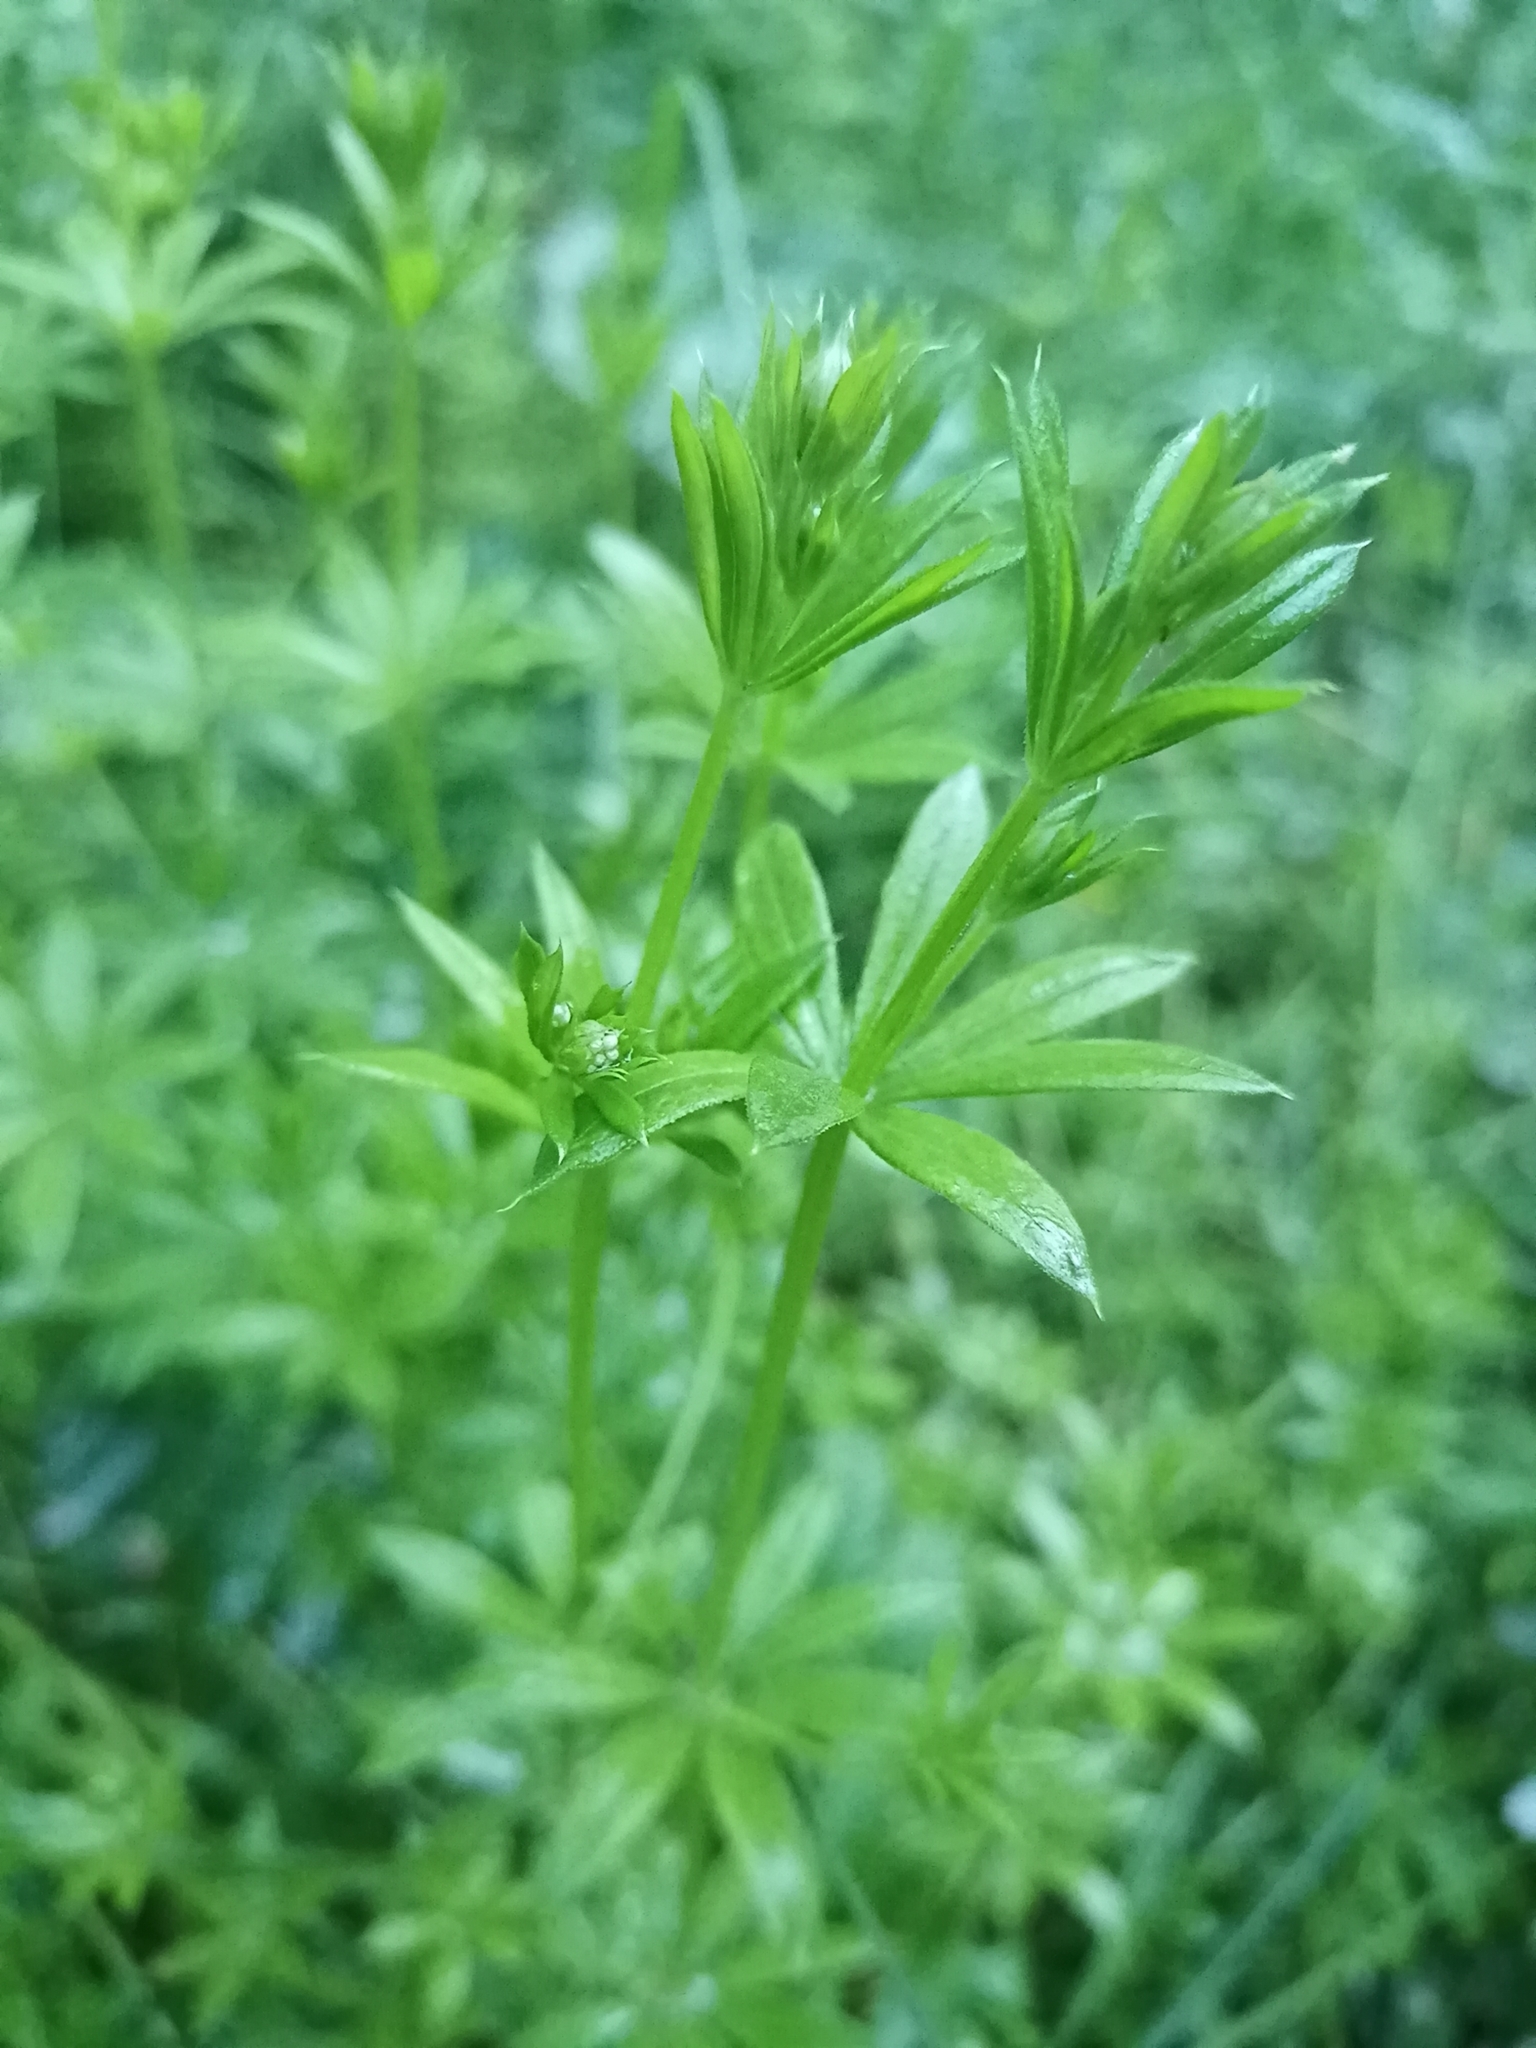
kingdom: Plantae
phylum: Tracheophyta
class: Magnoliopsida
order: Gentianales
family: Rubiaceae
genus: Galium
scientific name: Galium rivale
